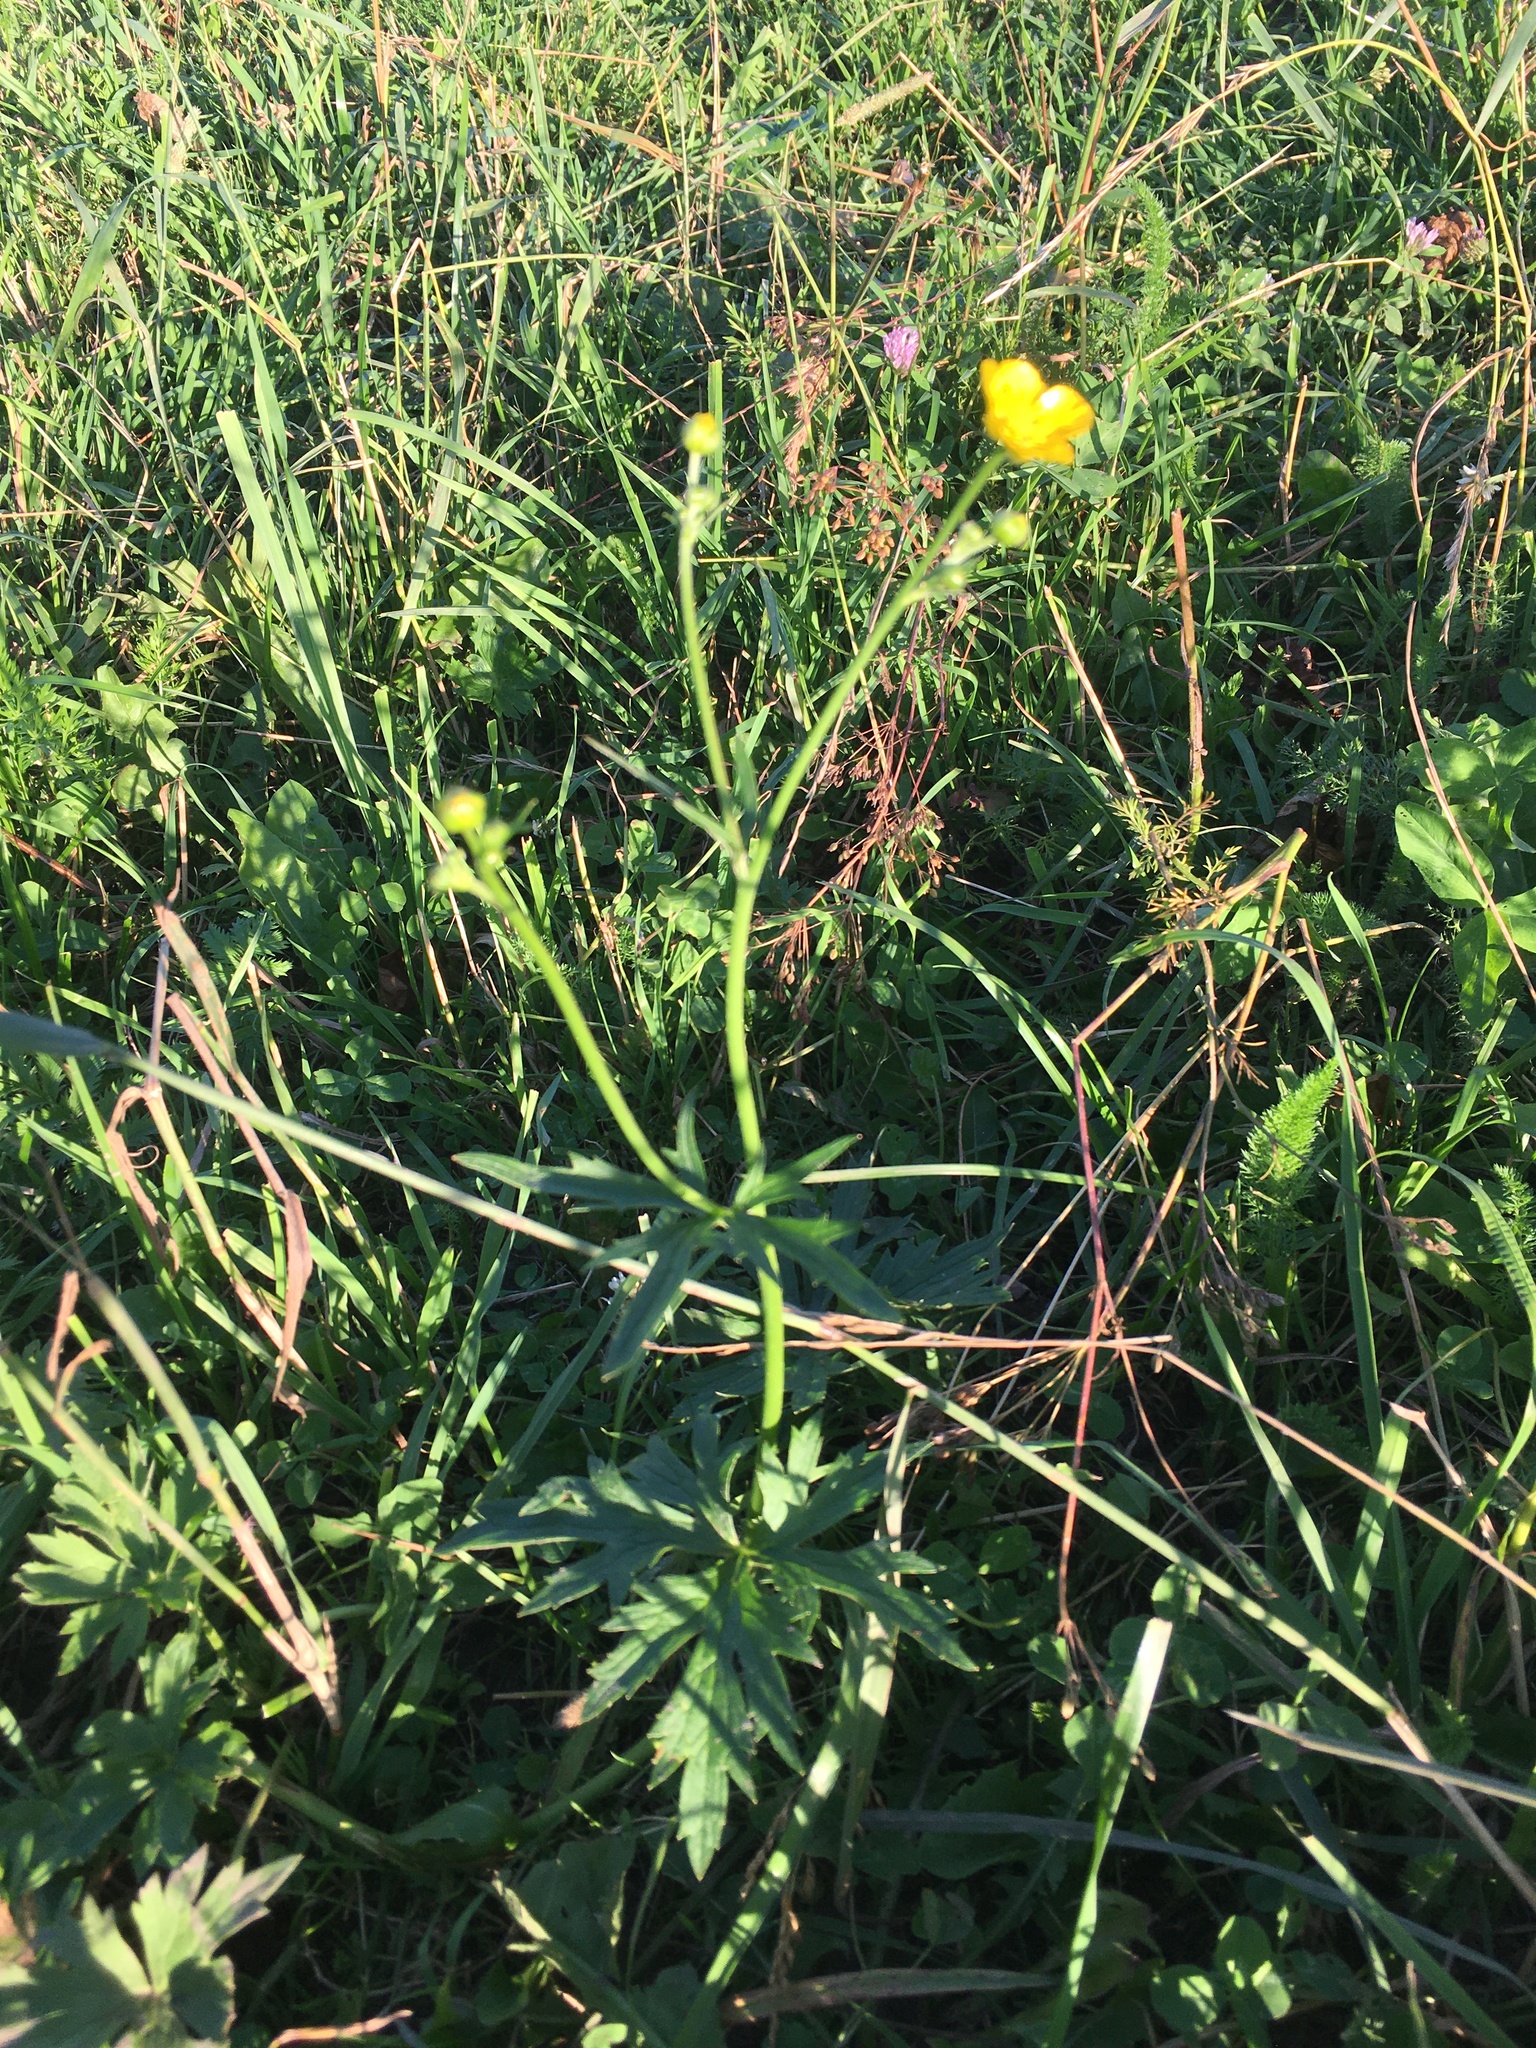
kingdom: Plantae
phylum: Tracheophyta
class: Magnoliopsida
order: Ranunculales
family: Ranunculaceae
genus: Ranunculus
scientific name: Ranunculus acris
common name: Meadow buttercup
